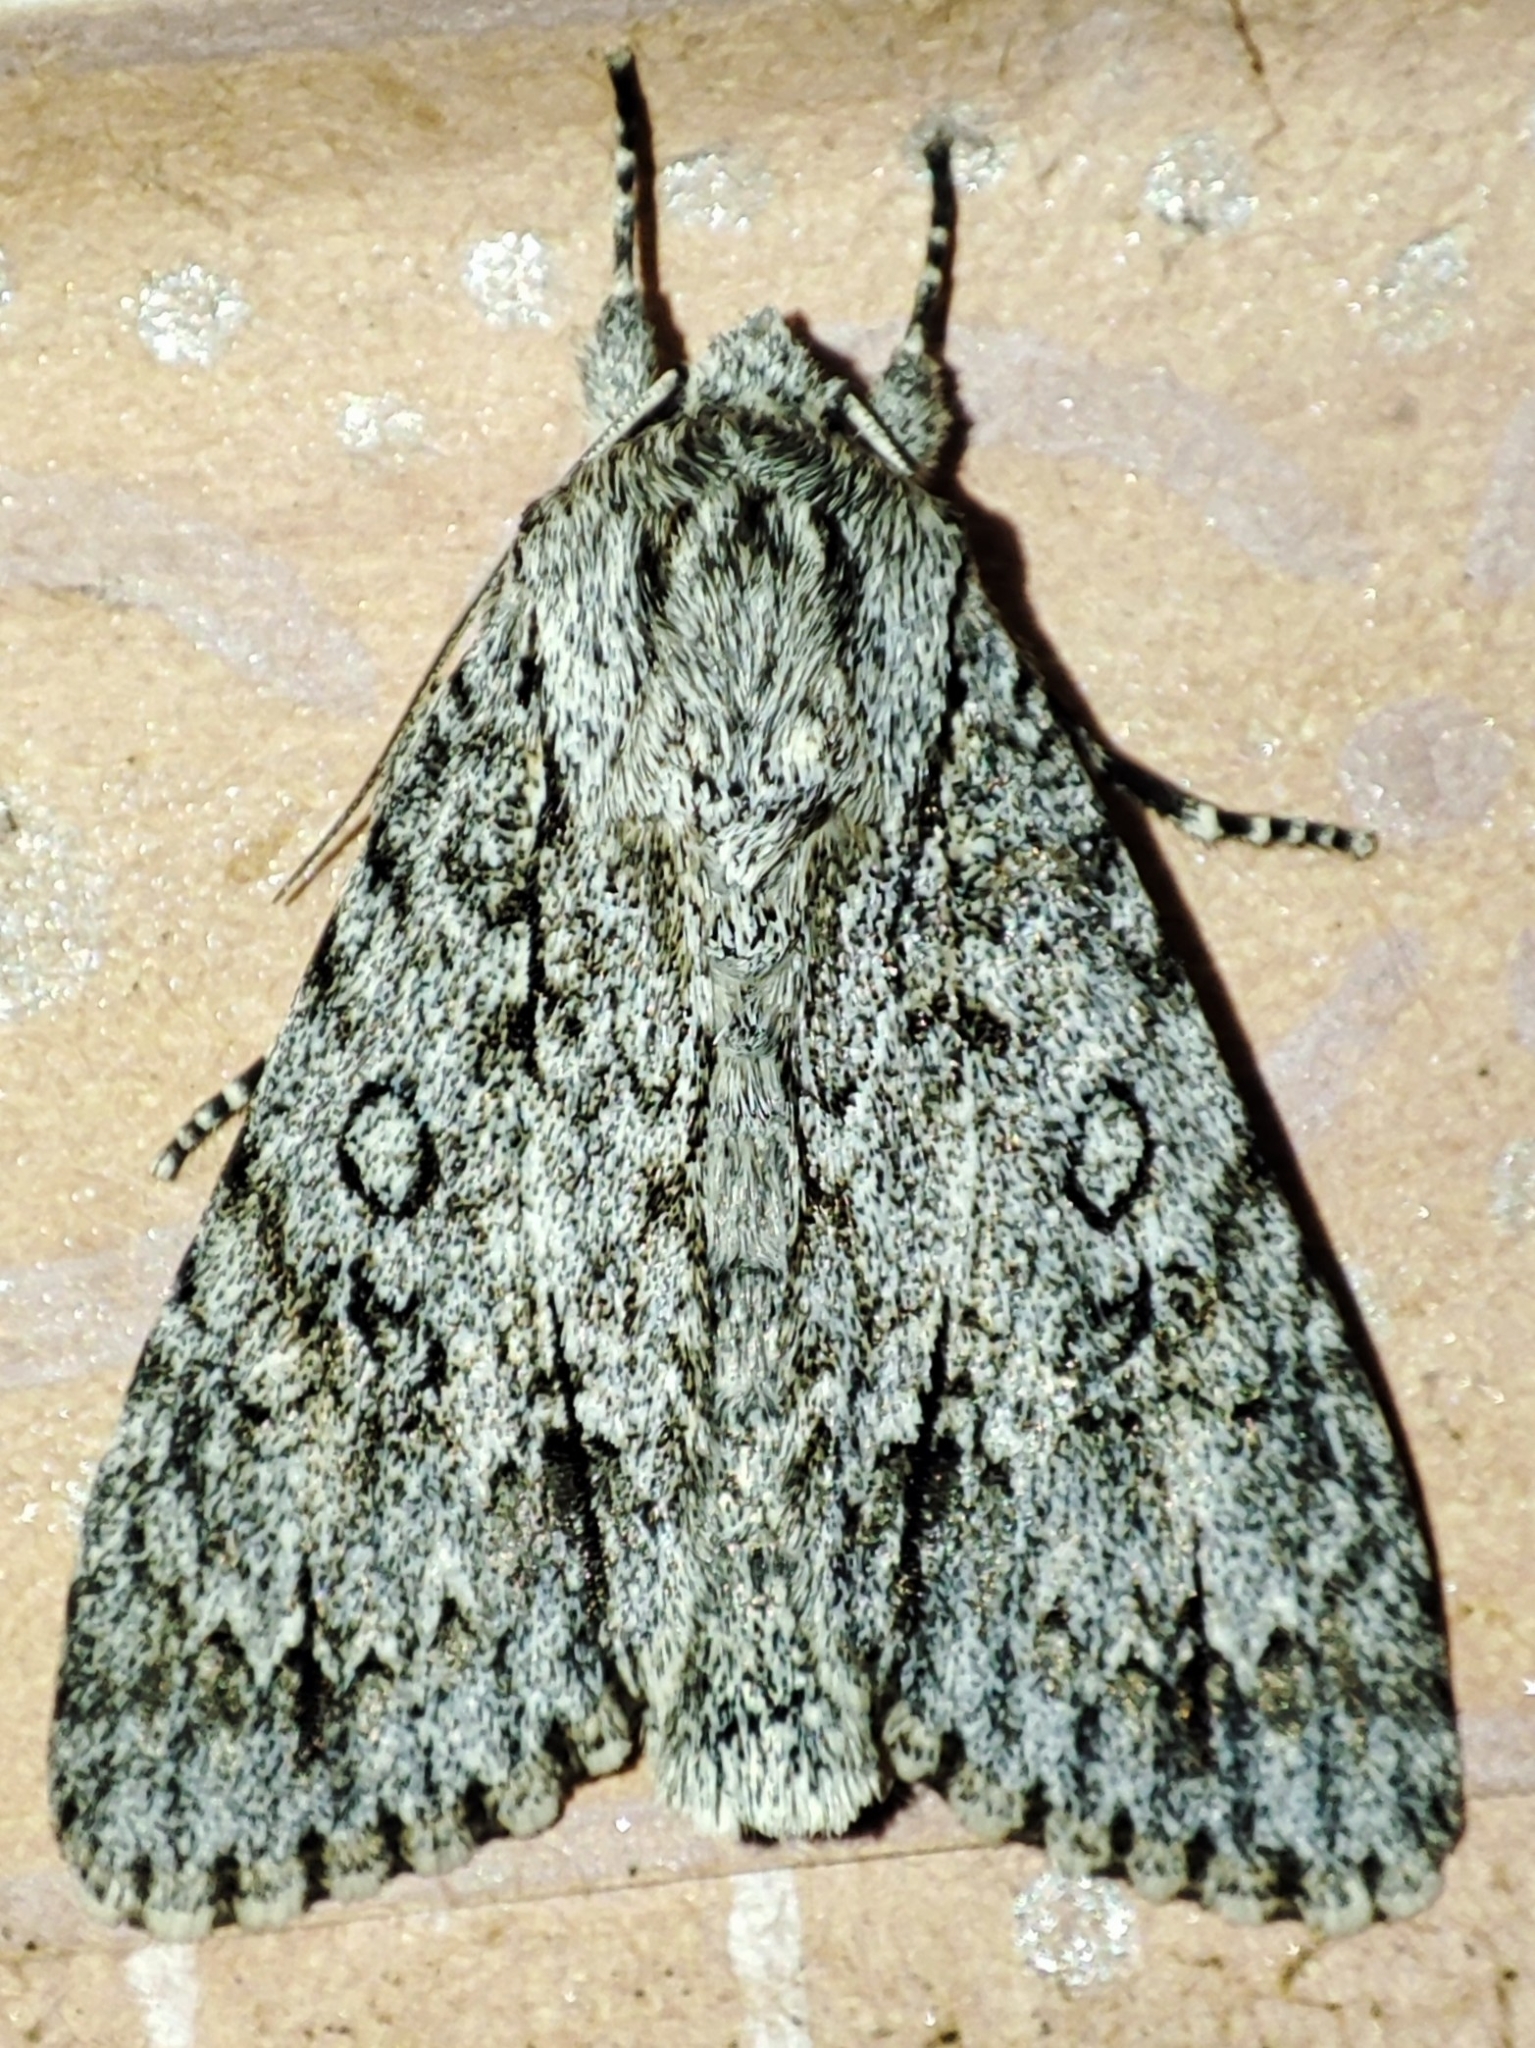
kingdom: Animalia
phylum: Arthropoda
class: Insecta
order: Lepidoptera
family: Noctuidae
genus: Acronicta
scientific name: Acronicta aceris
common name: Sycamore
